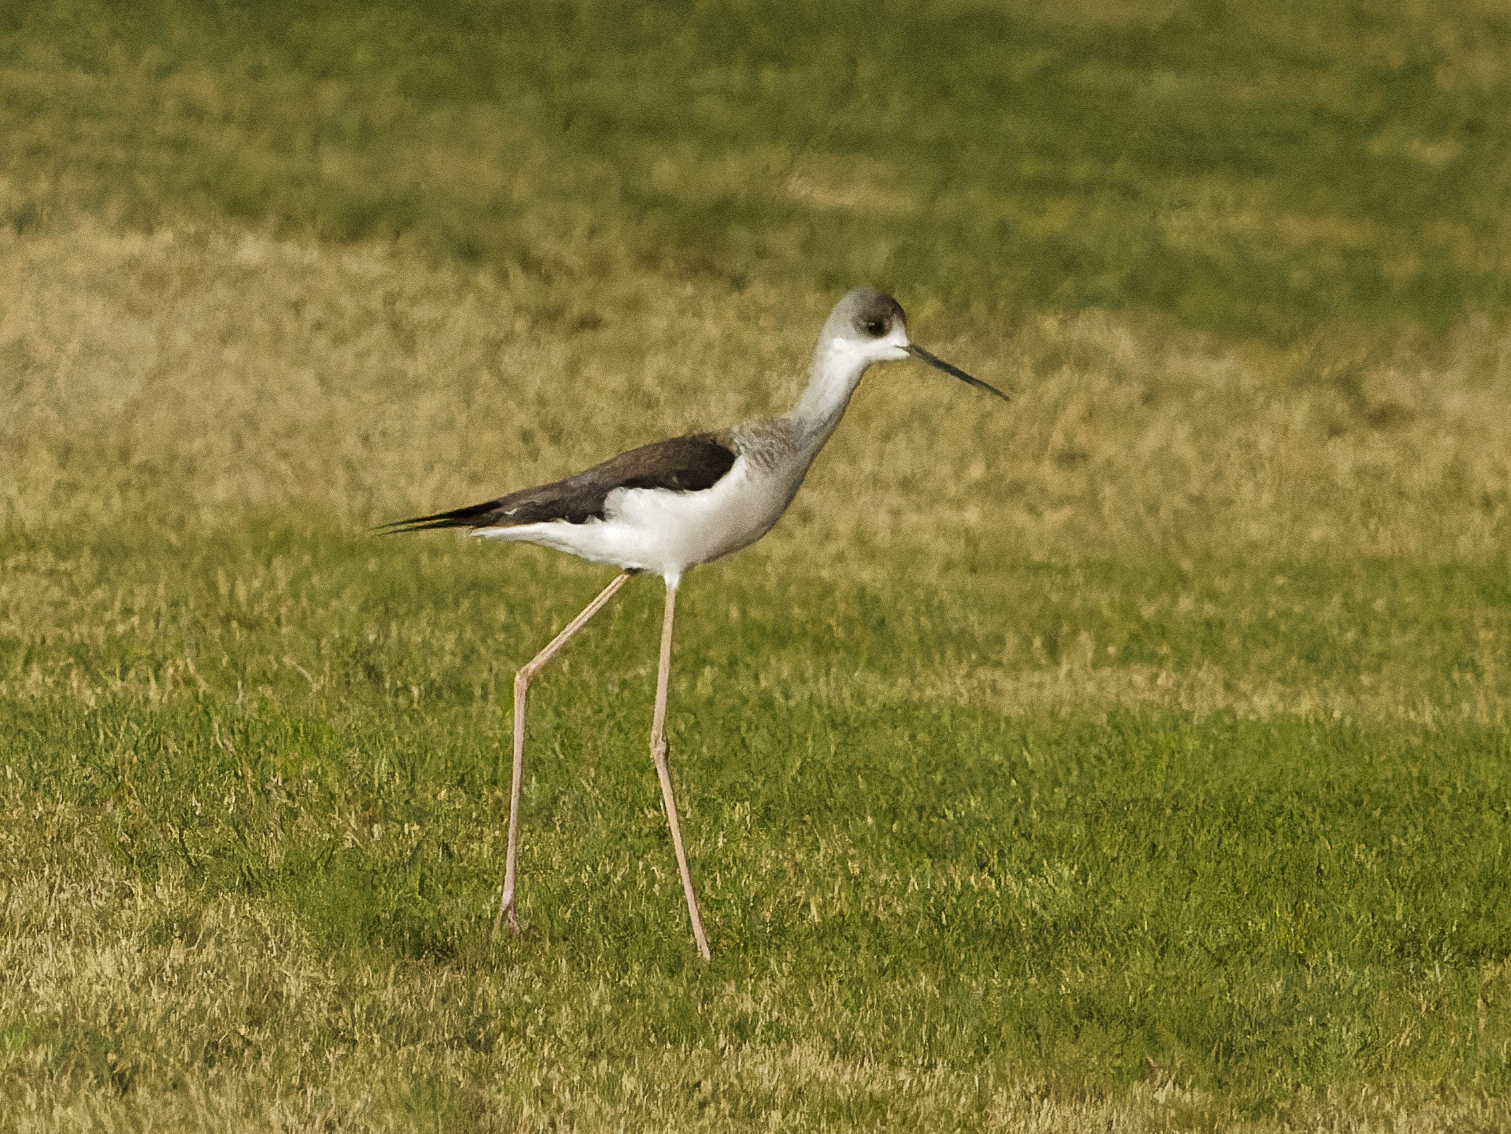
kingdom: Animalia
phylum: Chordata
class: Aves
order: Charadriiformes
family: Recurvirostridae
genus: Himantopus
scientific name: Himantopus himantopus
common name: Black-winged stilt
